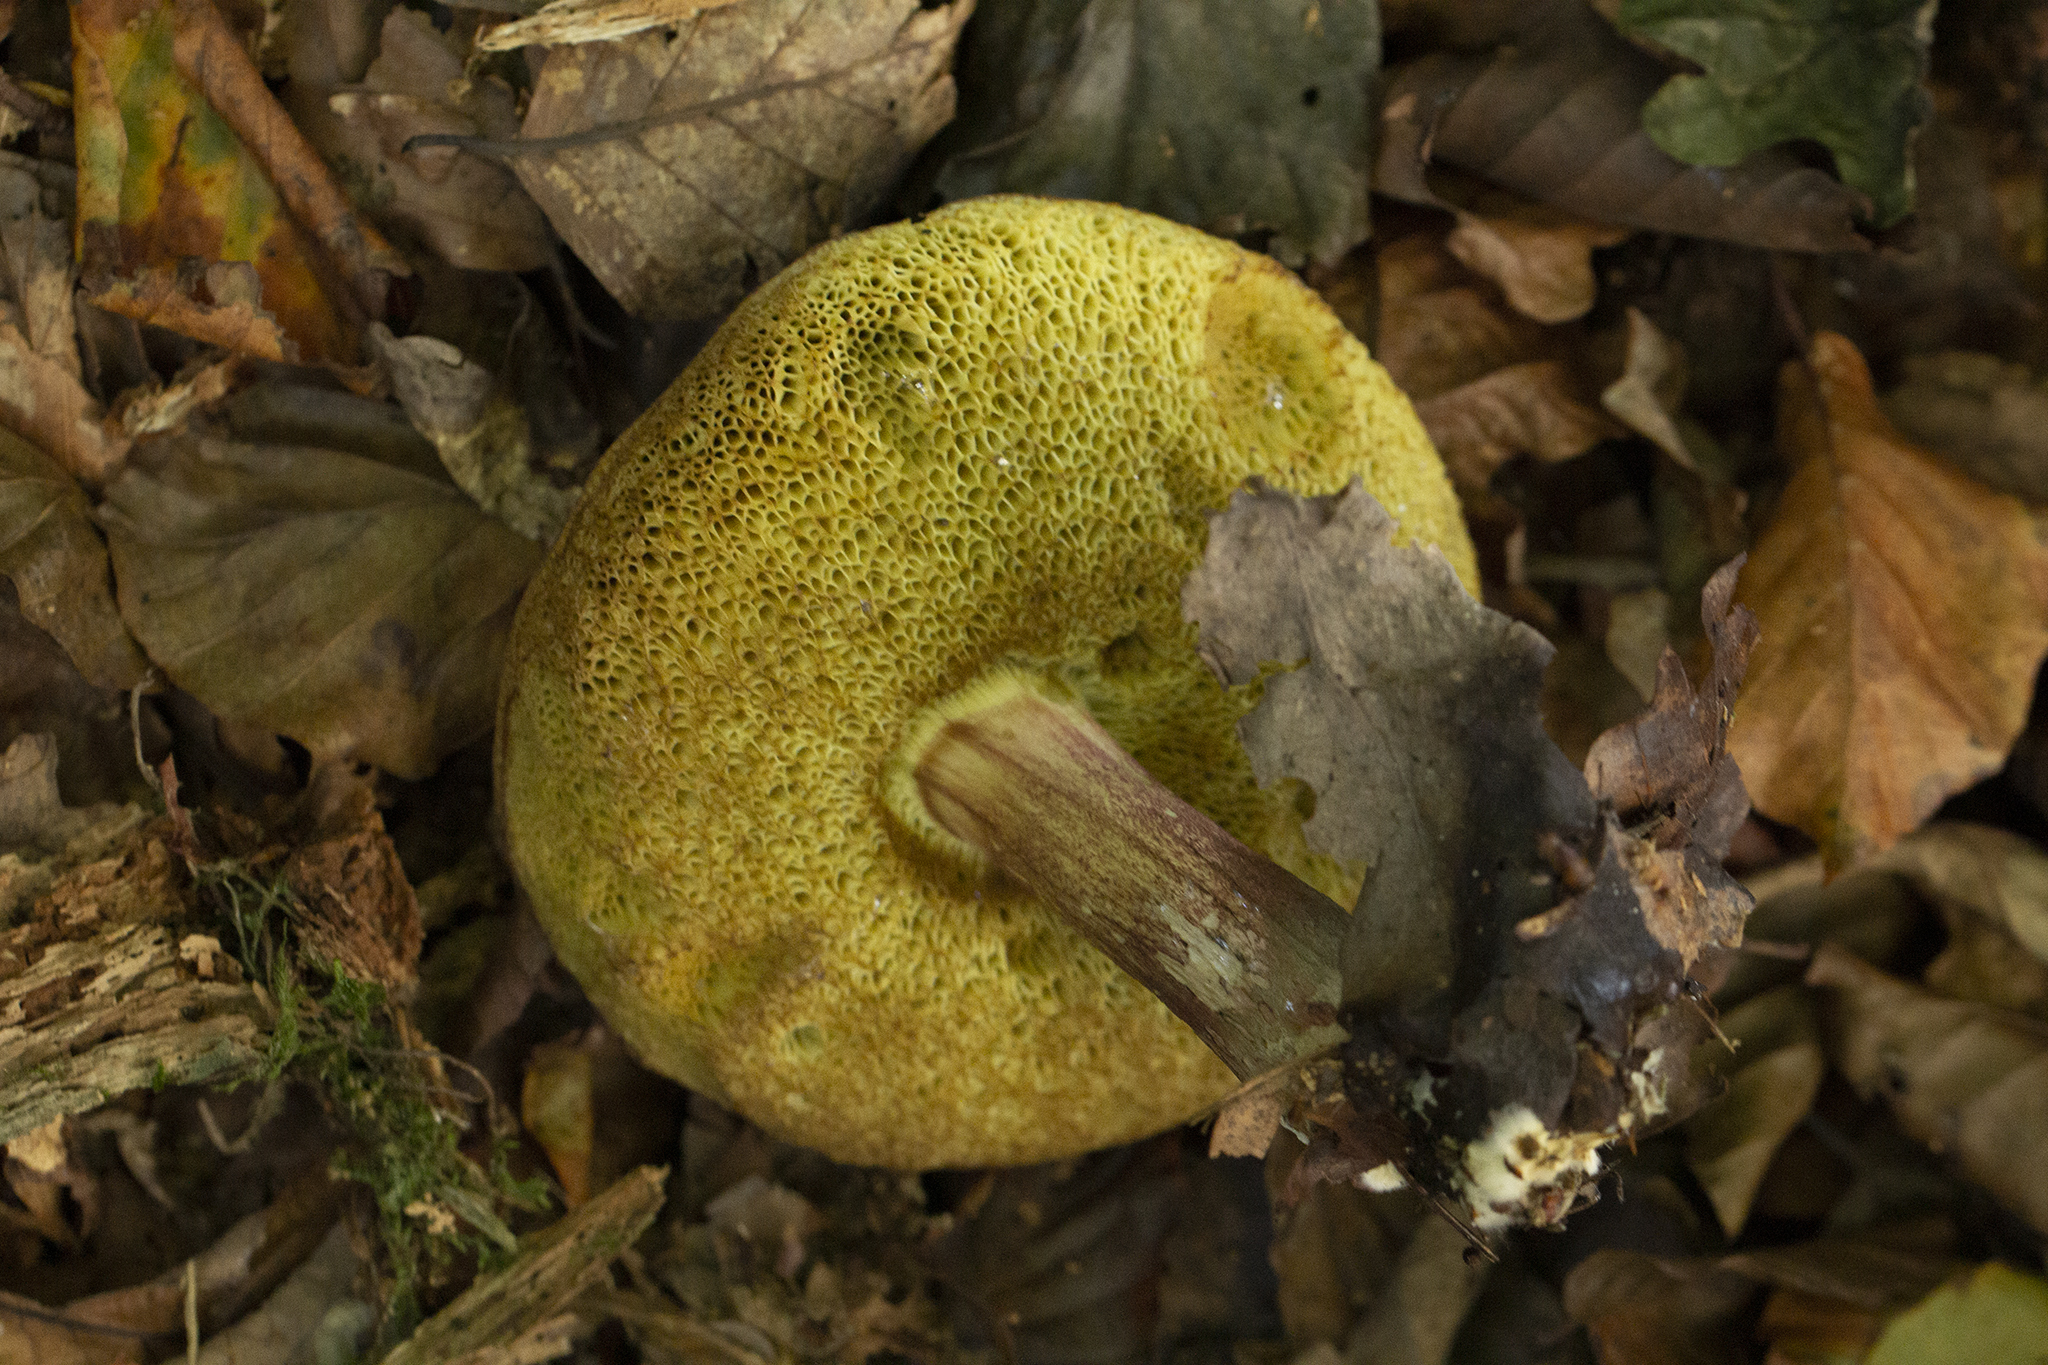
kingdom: Fungi
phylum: Basidiomycota
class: Agaricomycetes
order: Boletales
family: Boletaceae
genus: Xerocomellus
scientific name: Xerocomellus chrysenteron
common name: Red-cracking bolete
